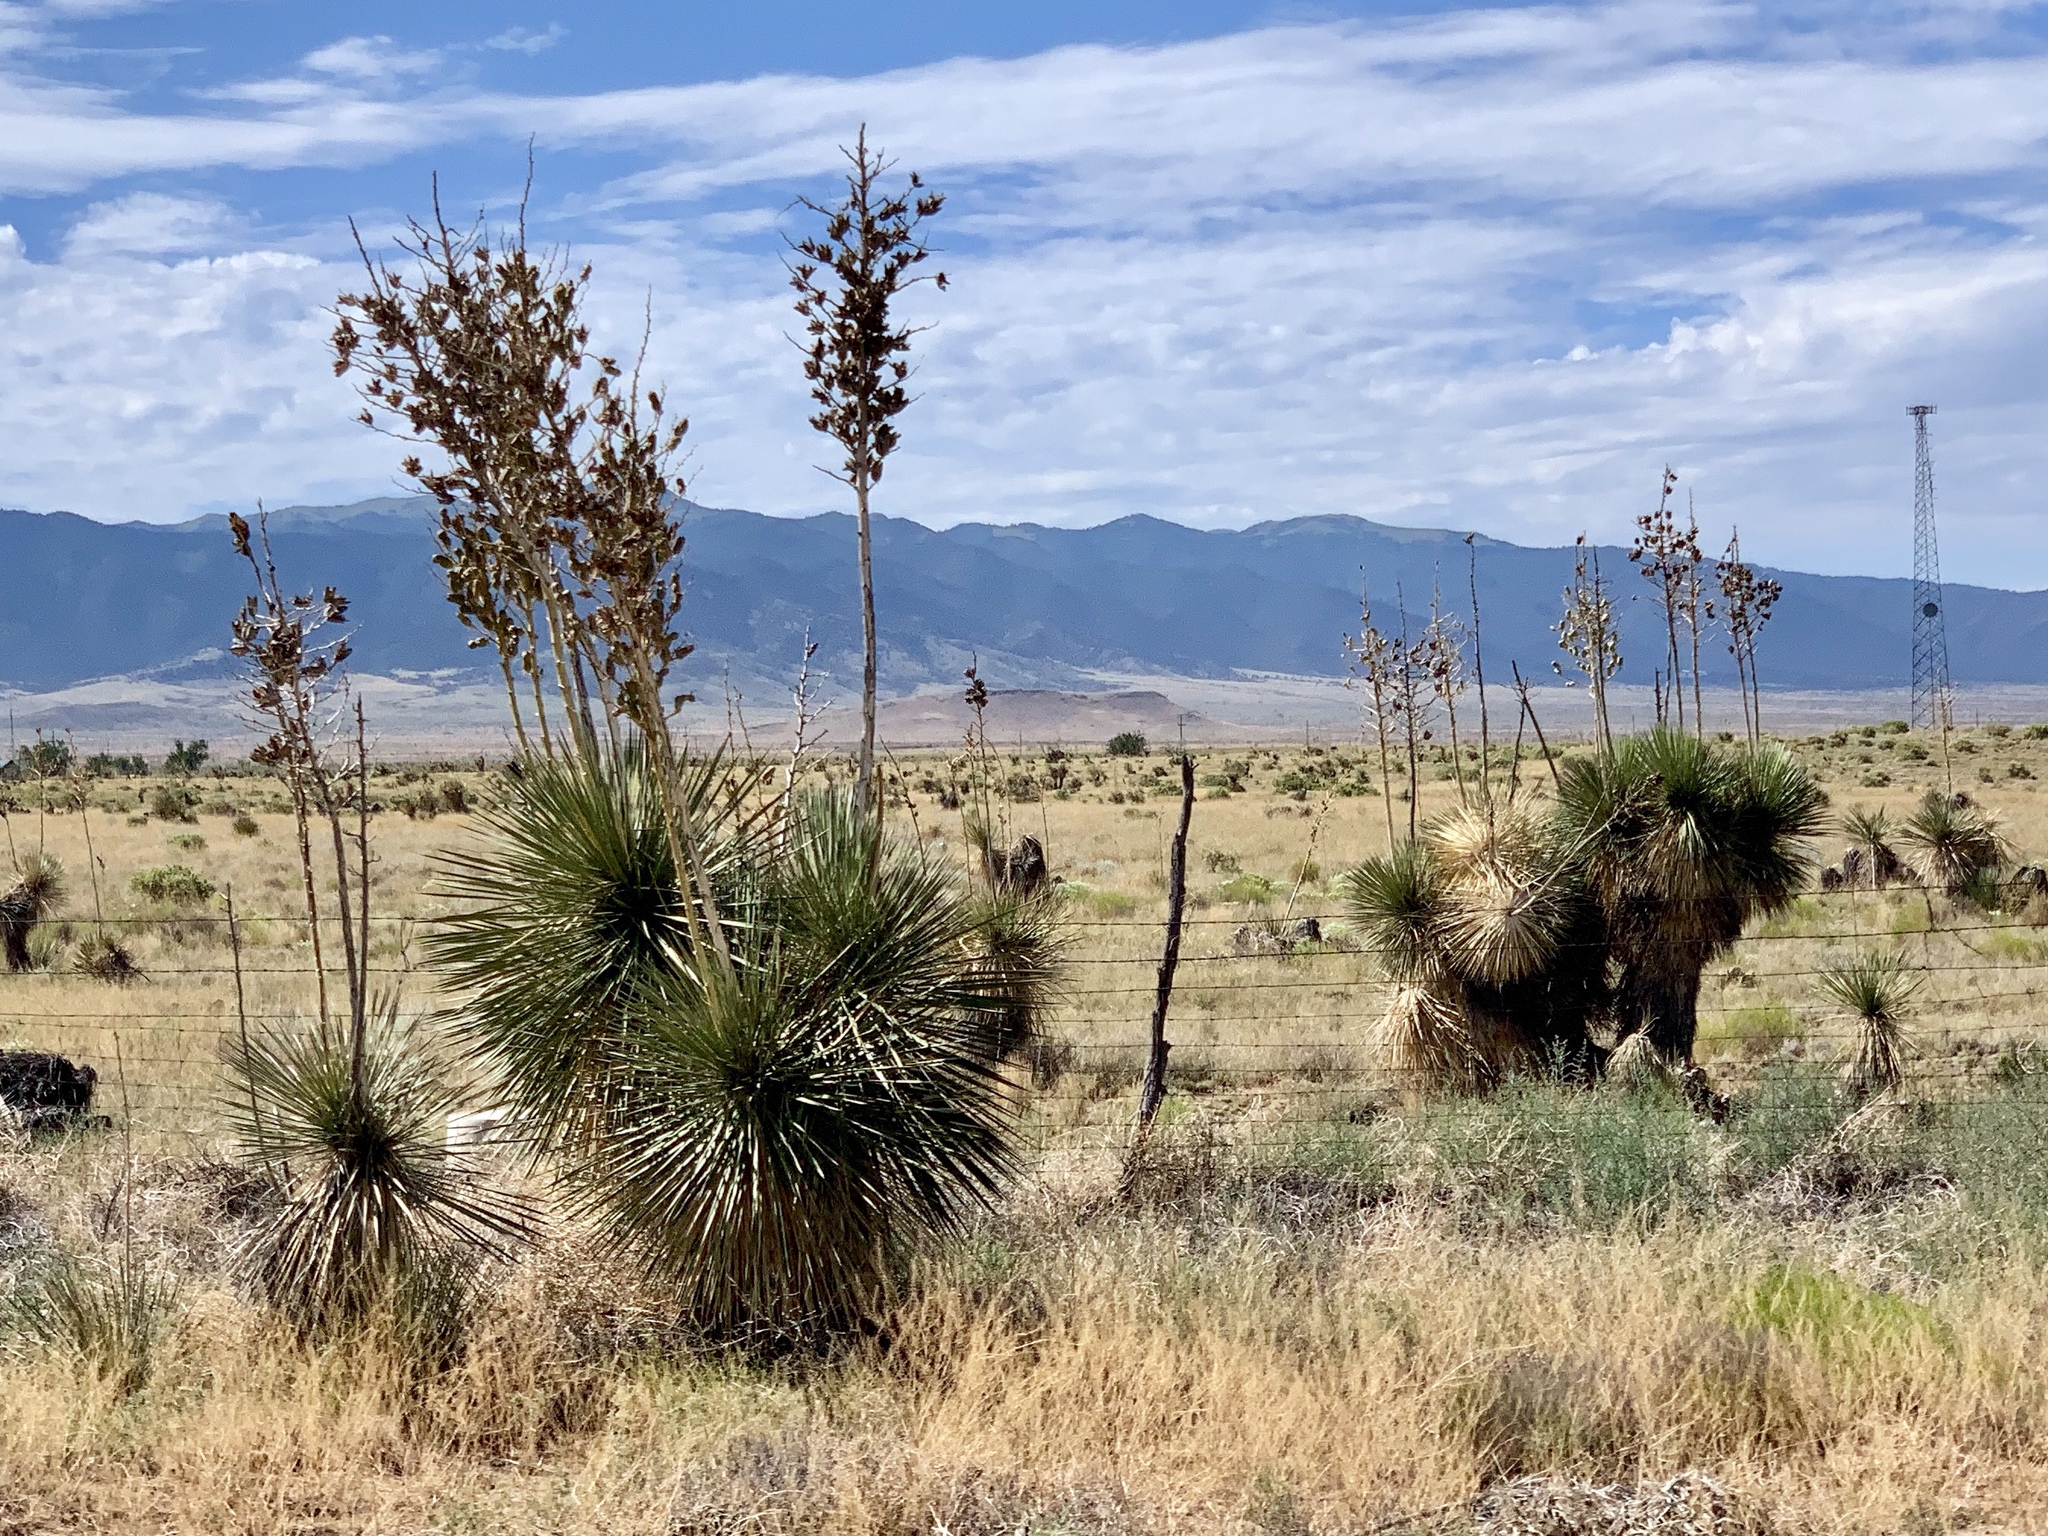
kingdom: Plantae
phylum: Tracheophyta
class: Liliopsida
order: Asparagales
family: Asparagaceae
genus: Yucca
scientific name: Yucca elata
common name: Palmella
